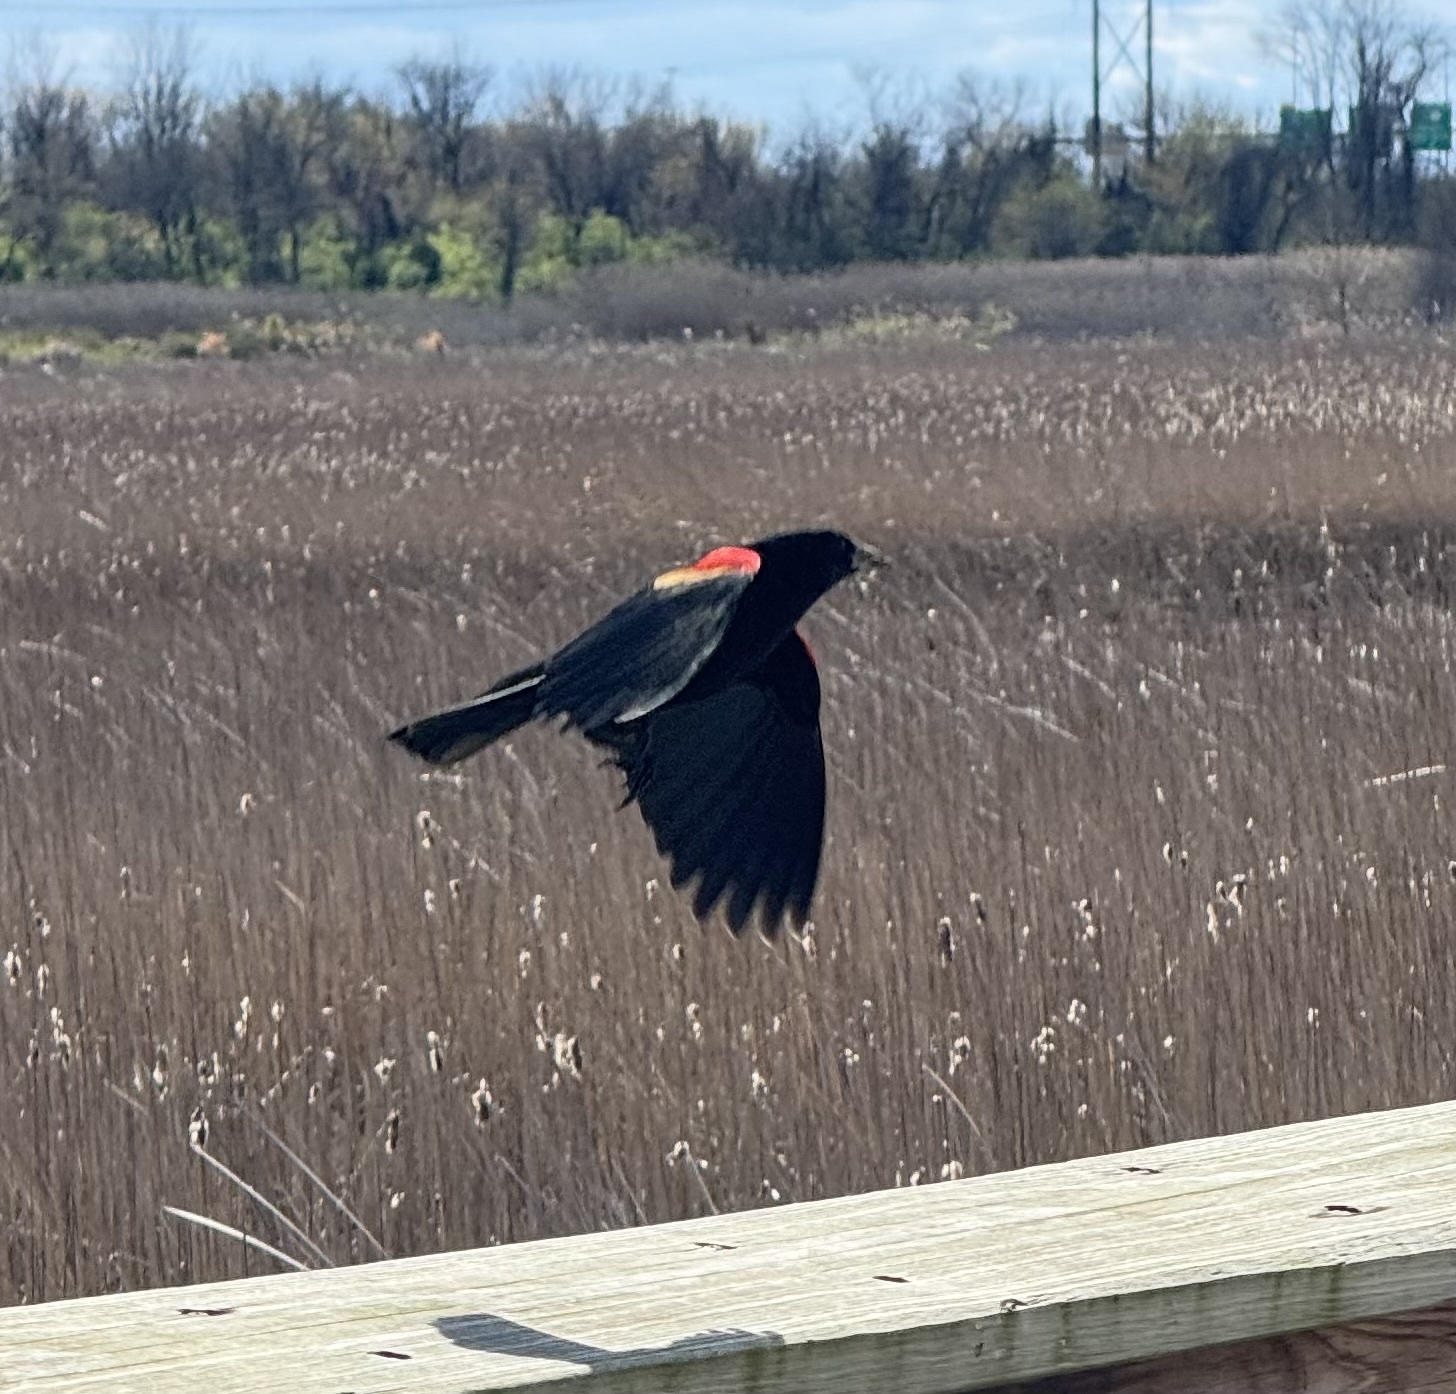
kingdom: Animalia
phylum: Chordata
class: Aves
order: Passeriformes
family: Icteridae
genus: Agelaius
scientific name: Agelaius phoeniceus
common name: Red-winged blackbird
